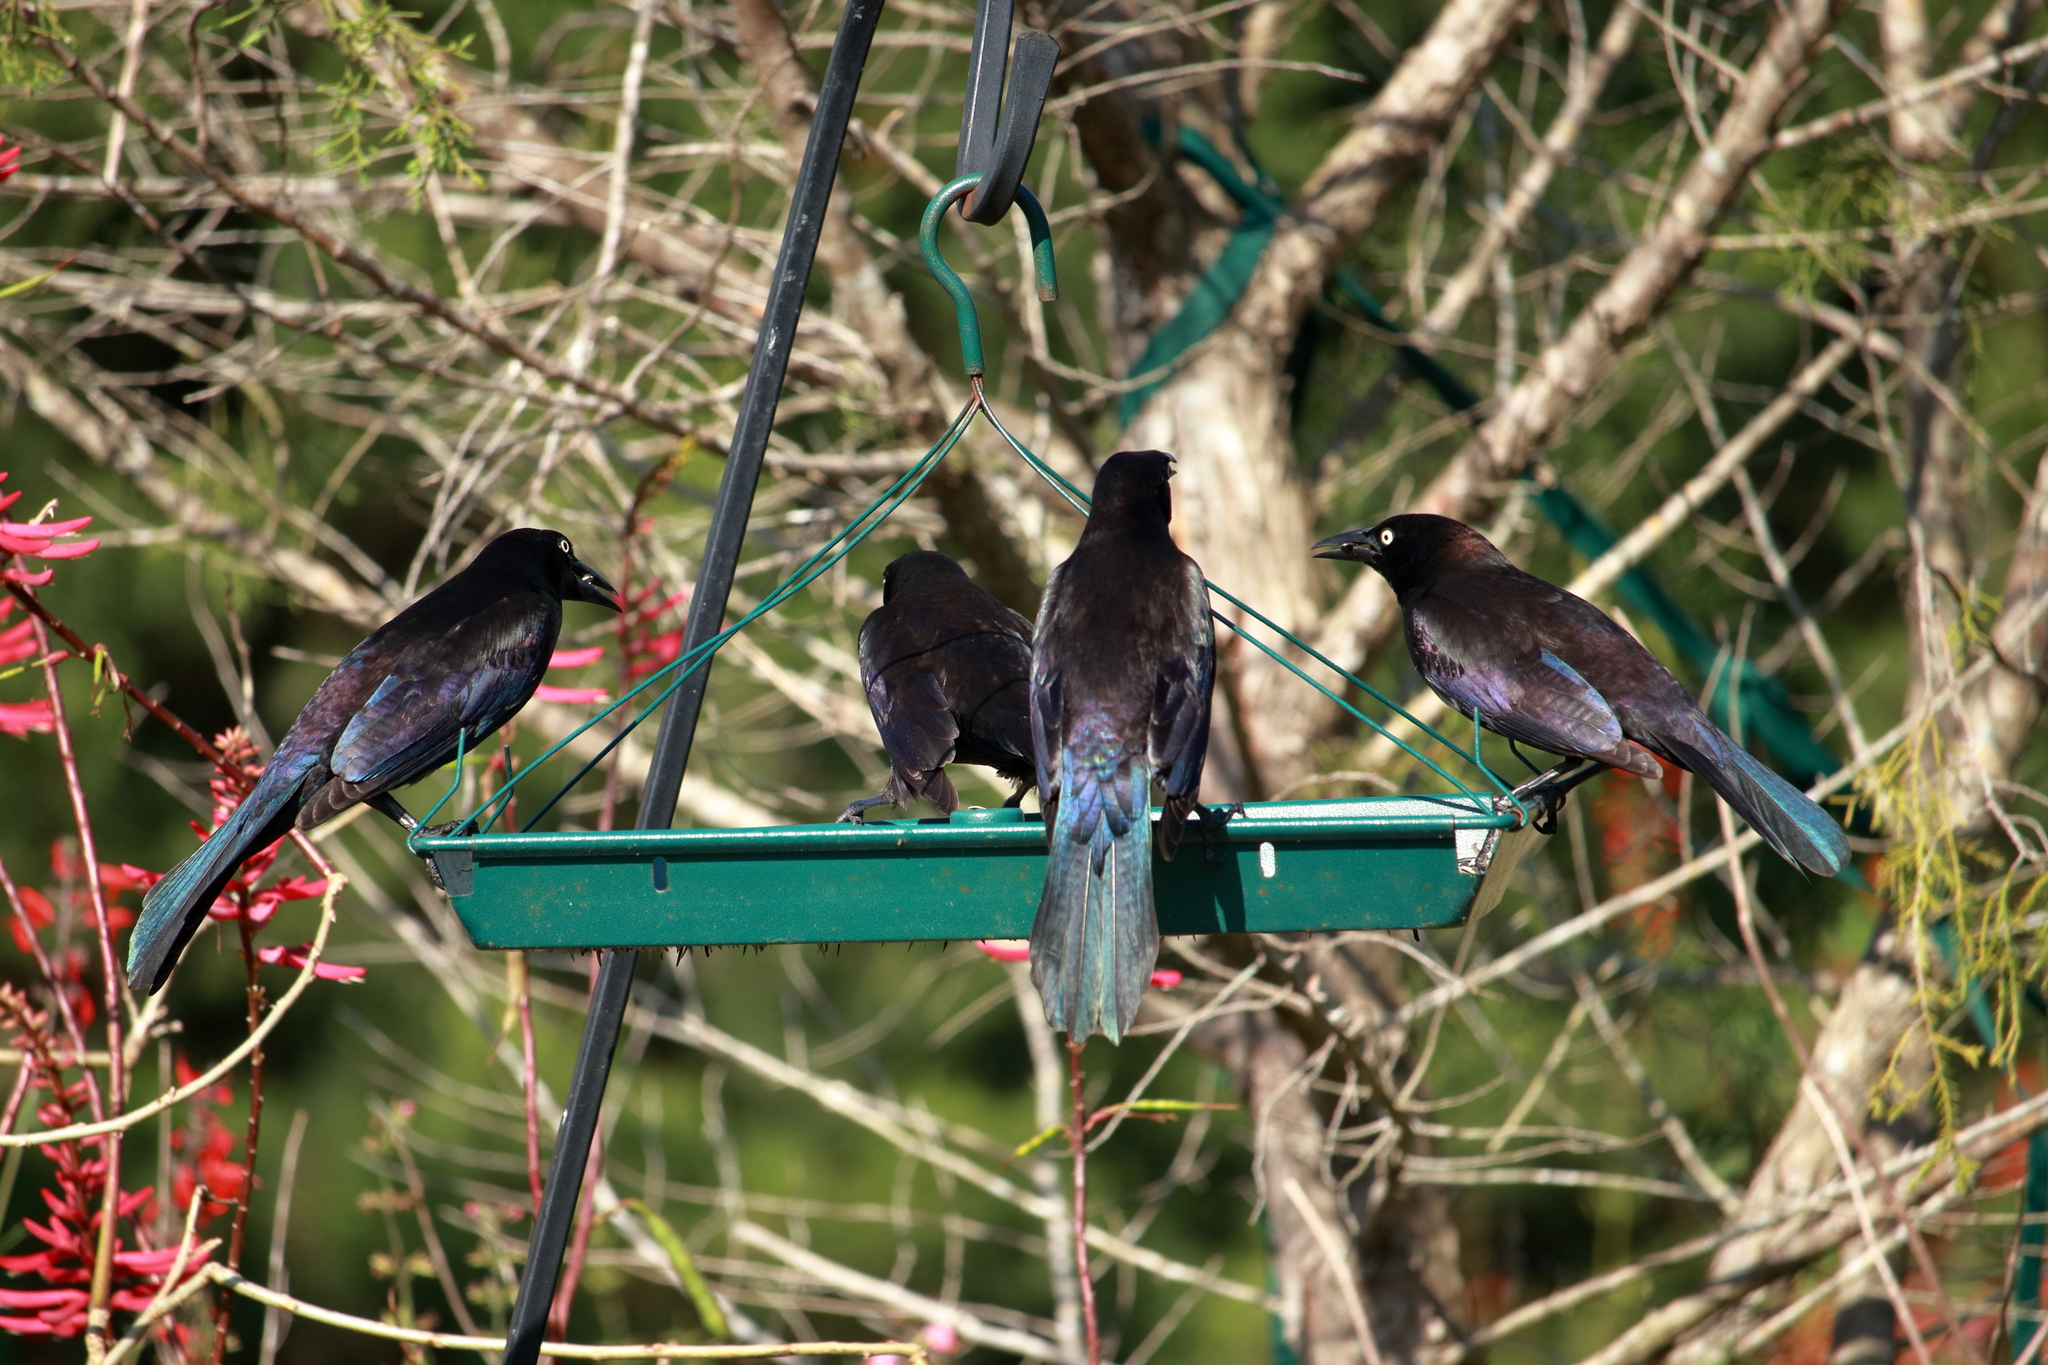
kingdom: Animalia
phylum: Chordata
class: Aves
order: Passeriformes
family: Icteridae
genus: Quiscalus
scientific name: Quiscalus quiscula
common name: Common grackle
